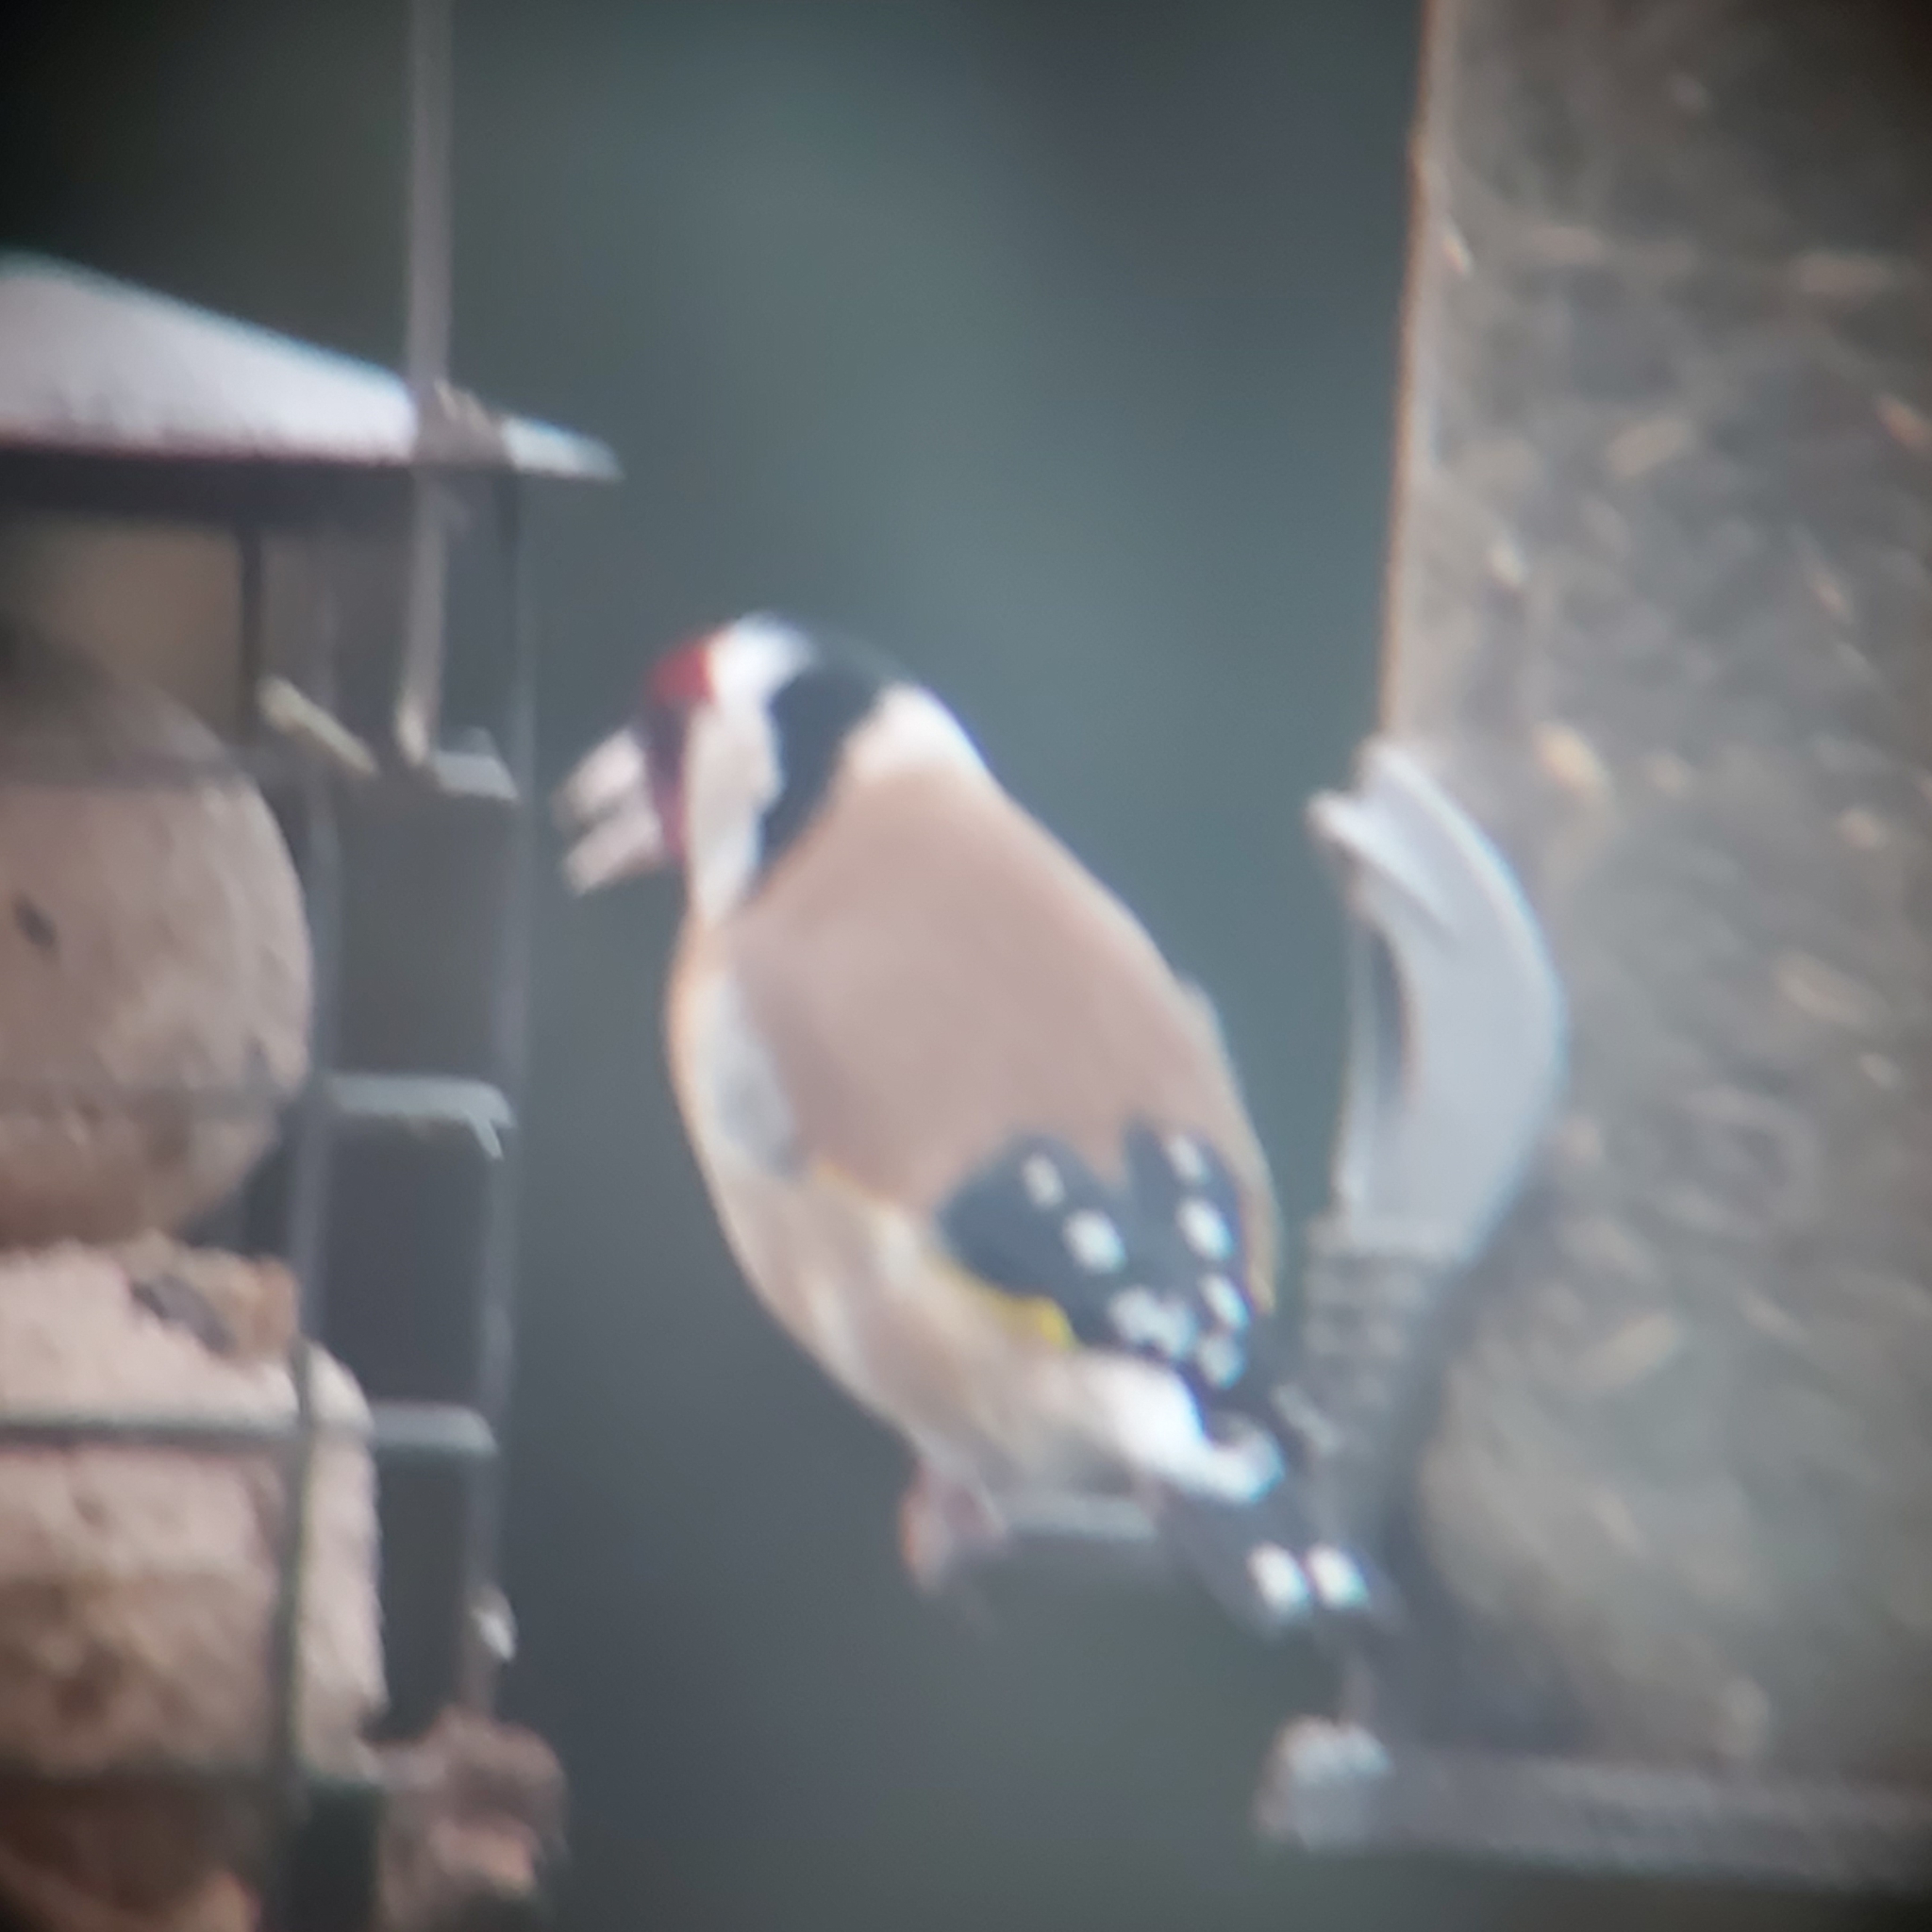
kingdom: Animalia
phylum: Chordata
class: Aves
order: Passeriformes
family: Fringillidae
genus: Carduelis
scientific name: Carduelis carduelis
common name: European goldfinch
